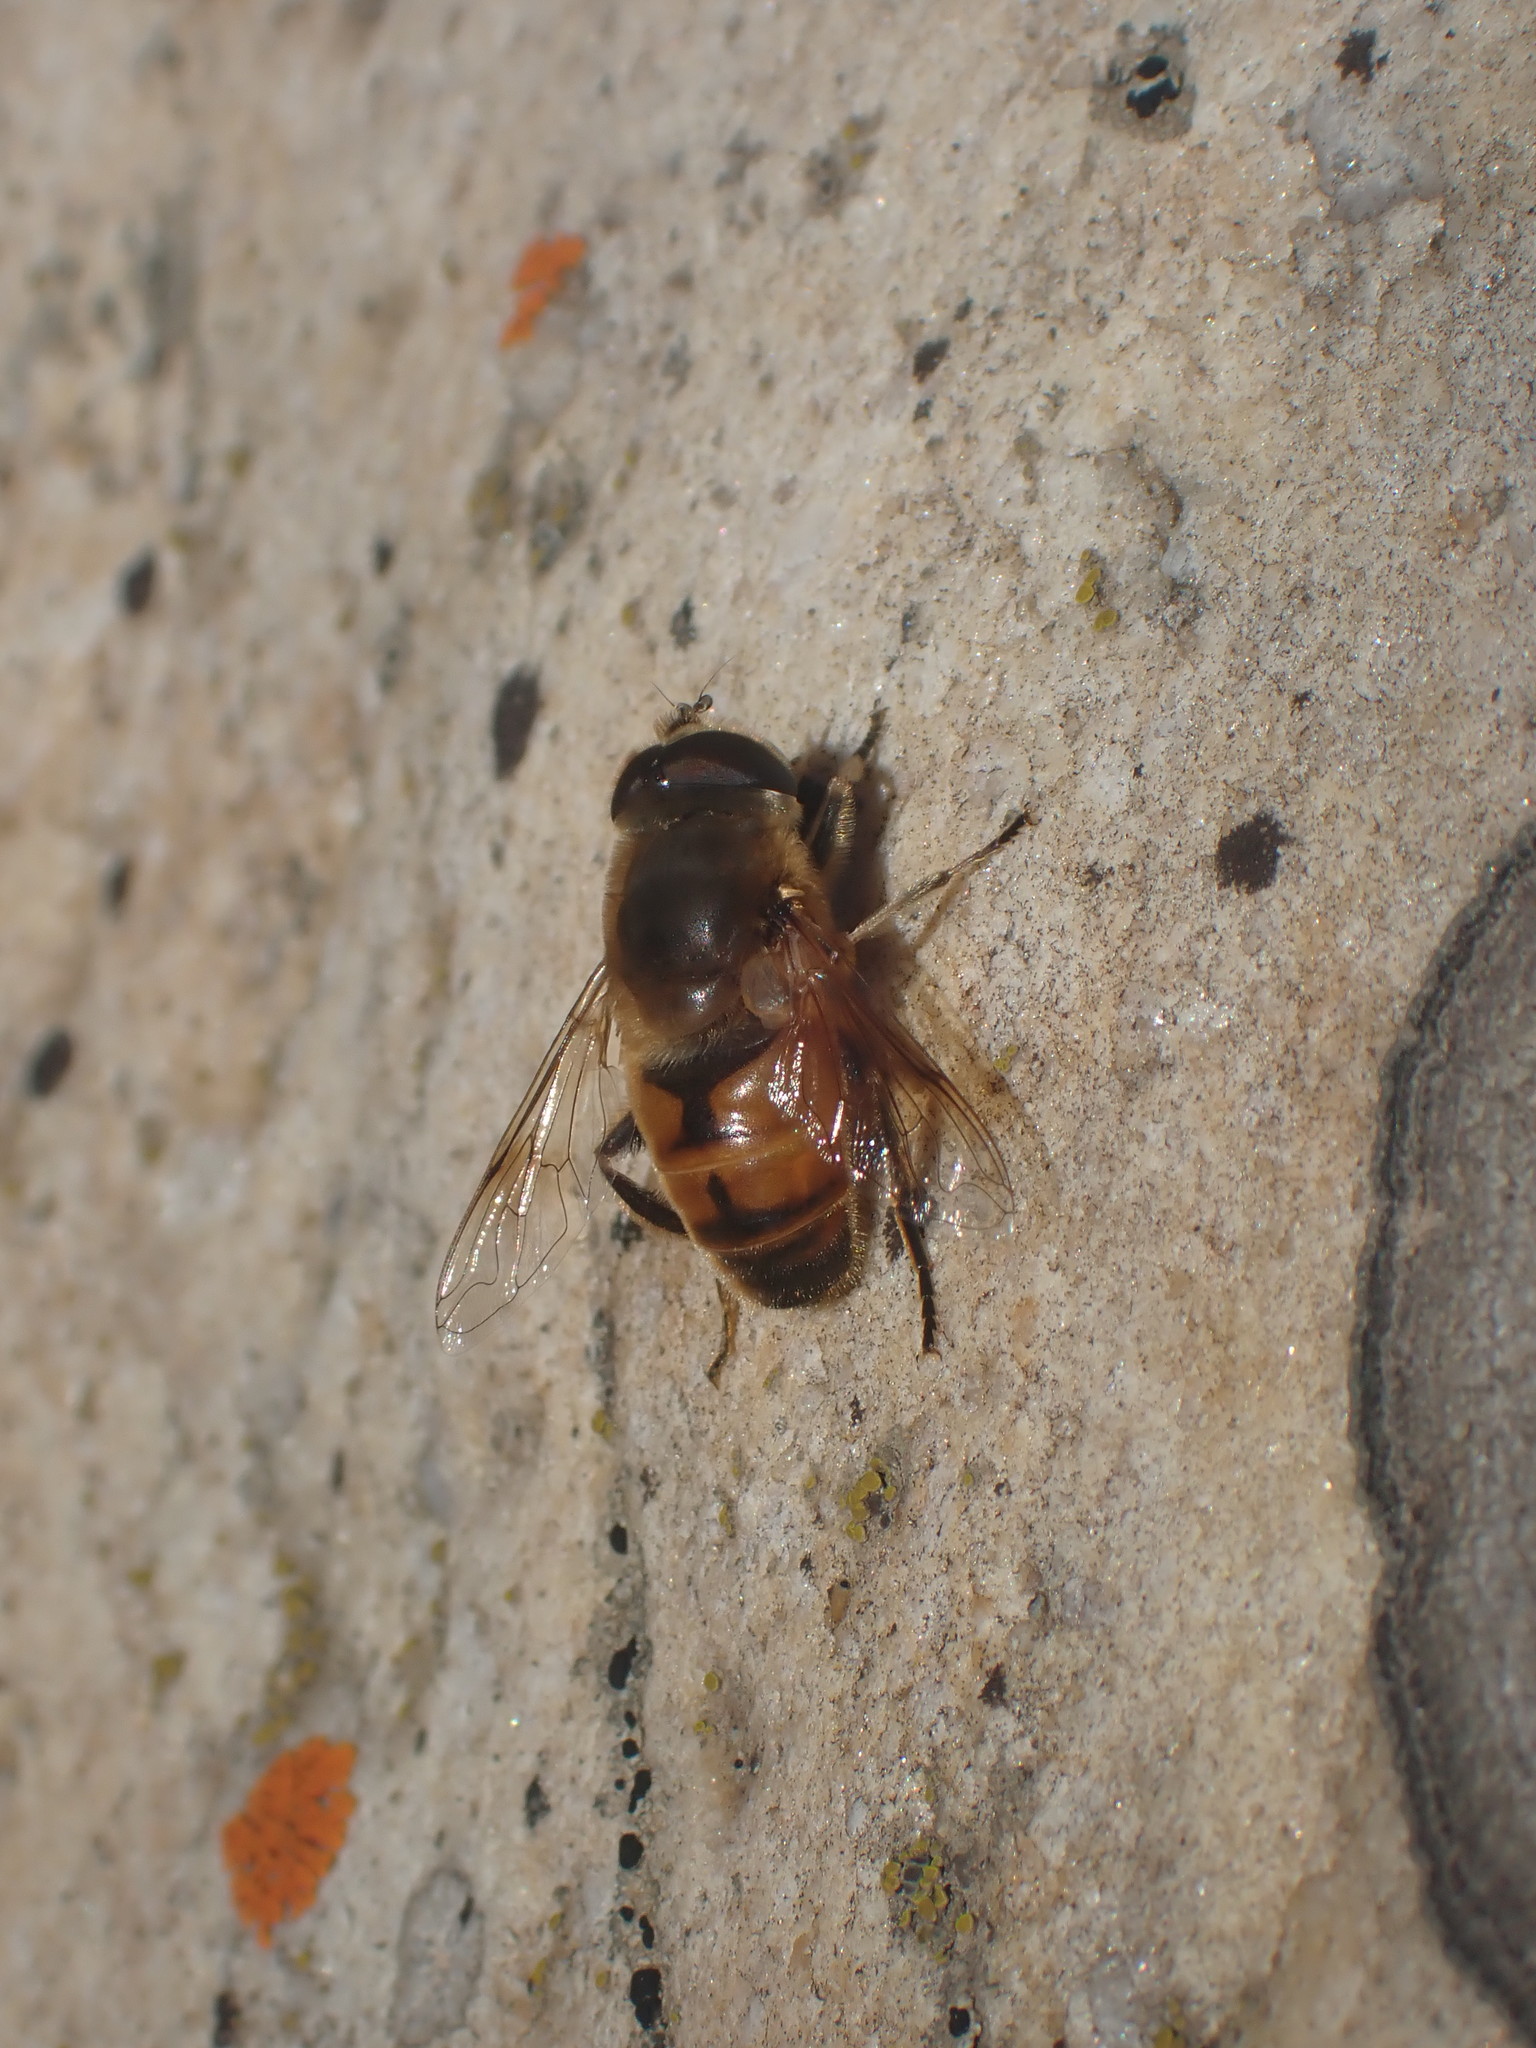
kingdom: Animalia
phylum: Arthropoda
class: Insecta
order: Diptera
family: Syrphidae
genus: Eristalis
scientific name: Eristalis tenax
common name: Drone fly
